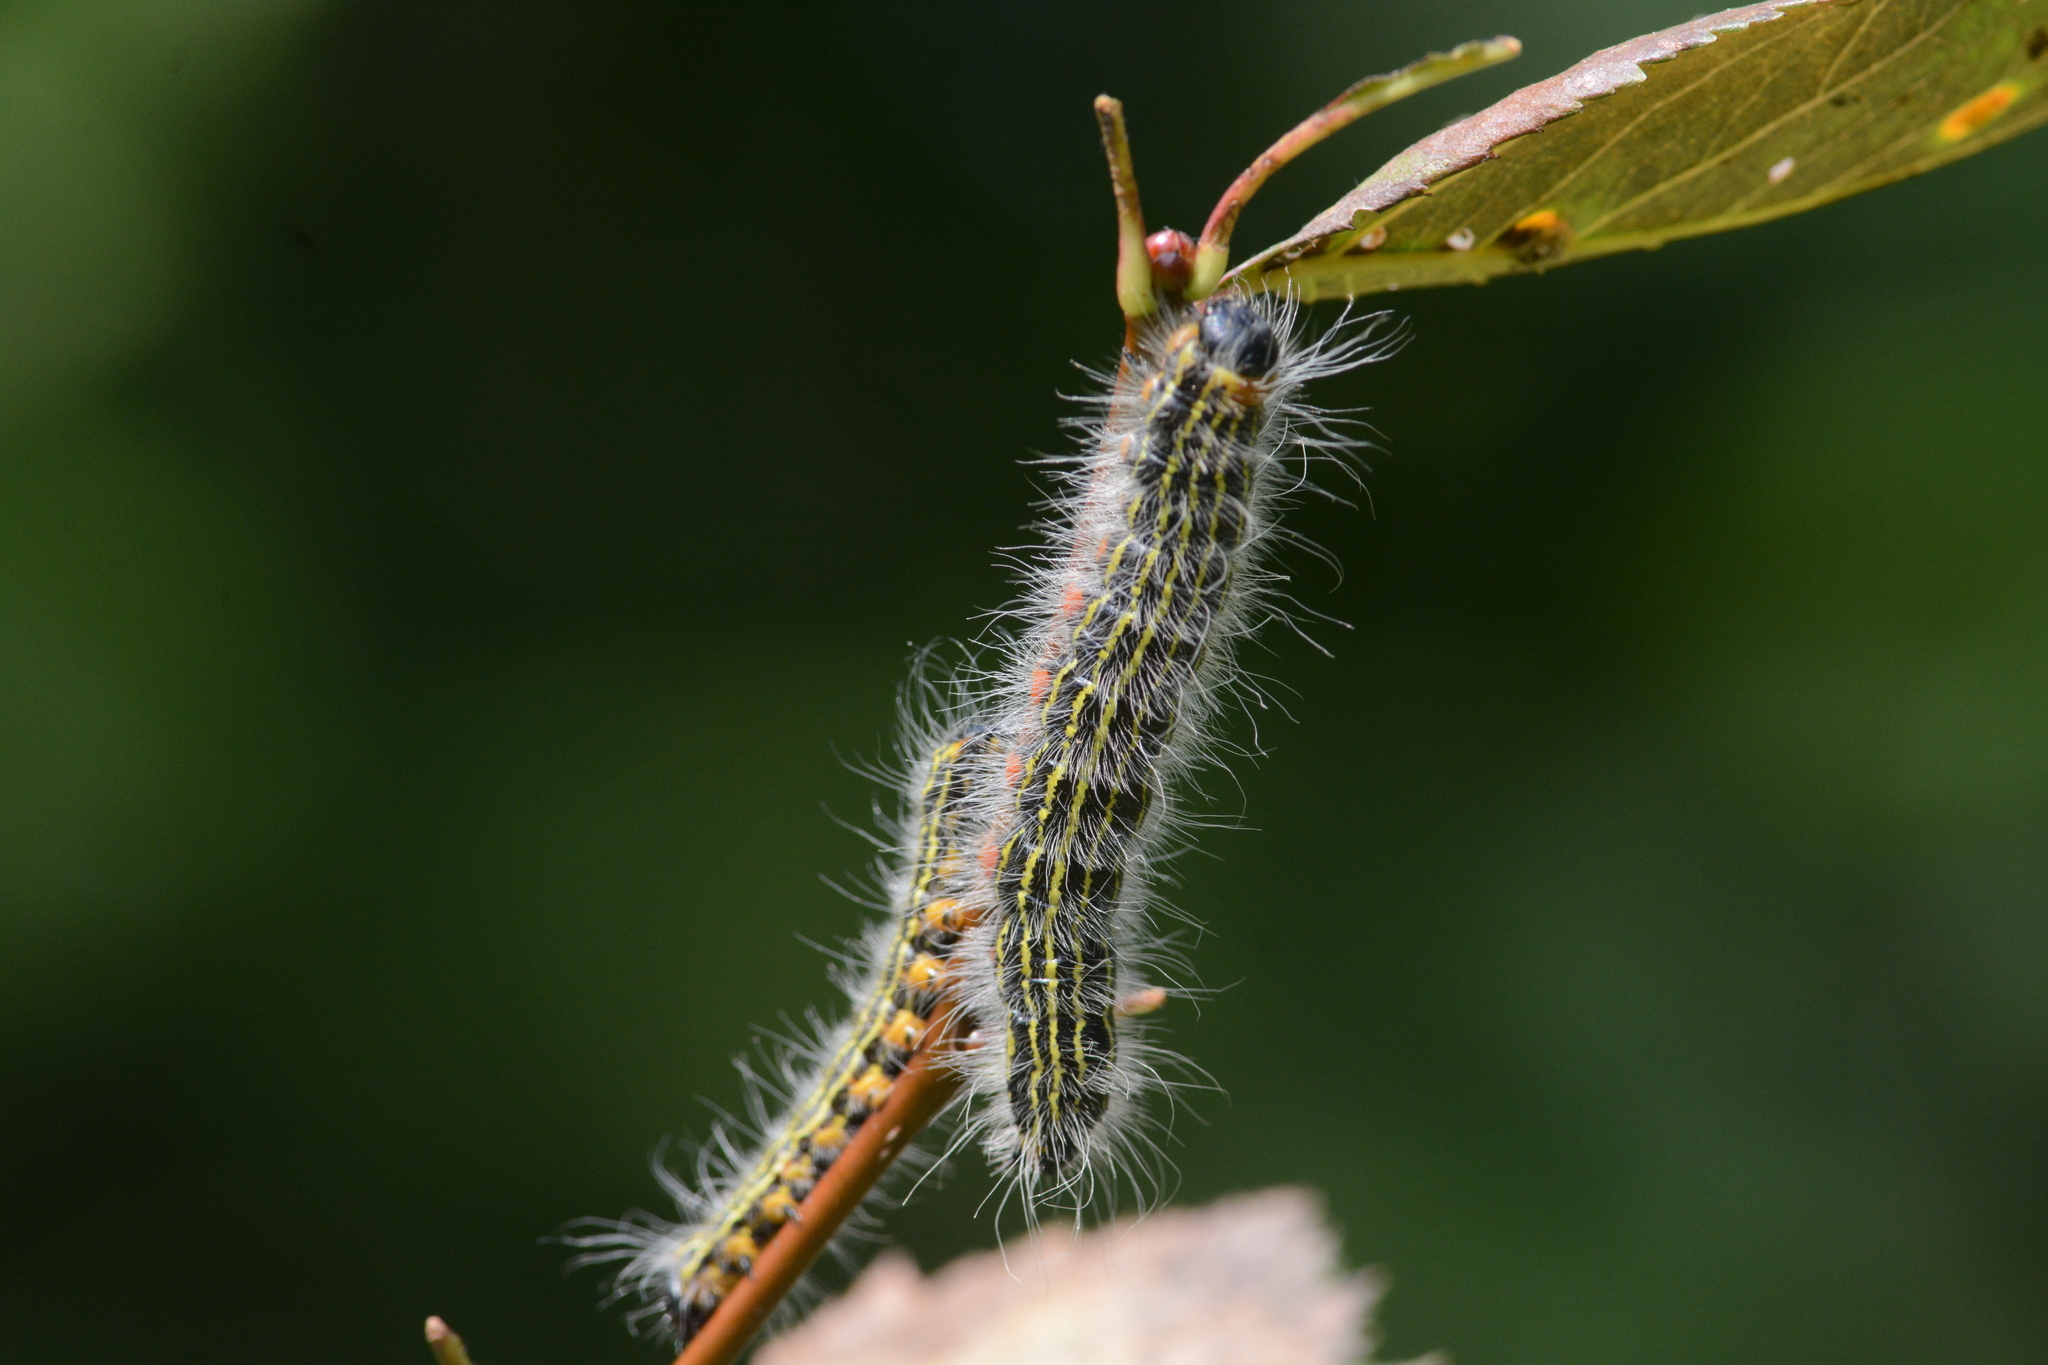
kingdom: Animalia
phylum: Arthropoda
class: Insecta
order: Lepidoptera
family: Notodontidae
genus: Datana
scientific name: Datana
